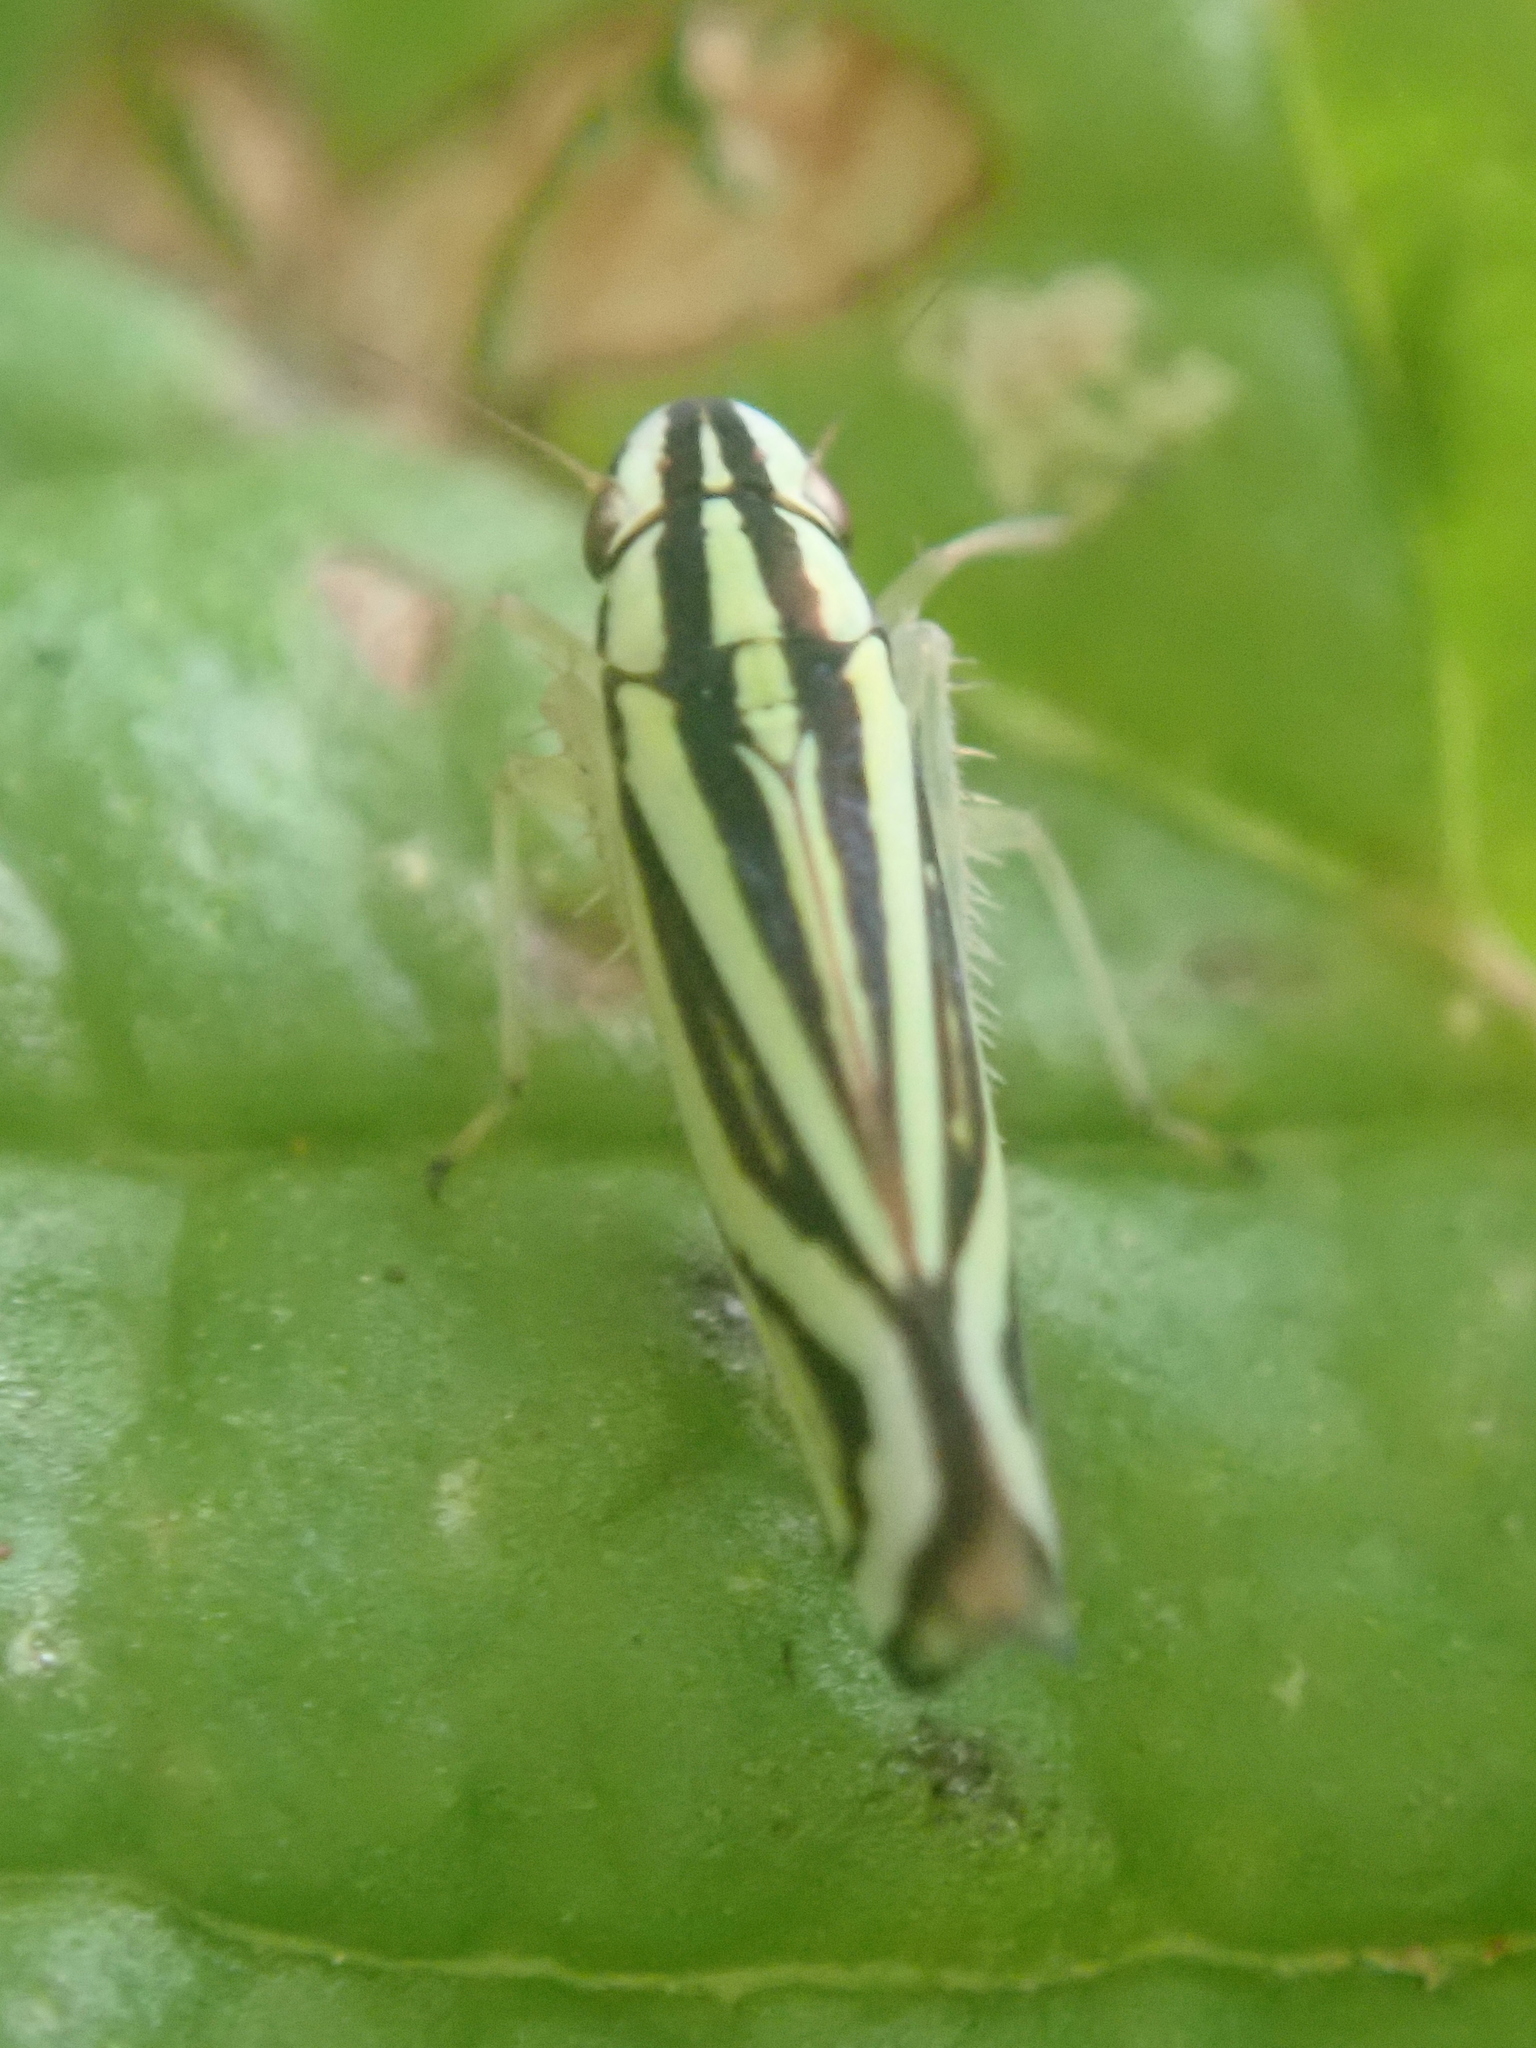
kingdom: Animalia
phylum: Arthropoda
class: Insecta
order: Hemiptera
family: Cicadellidae
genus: Sibovia
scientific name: Sibovia sagata
